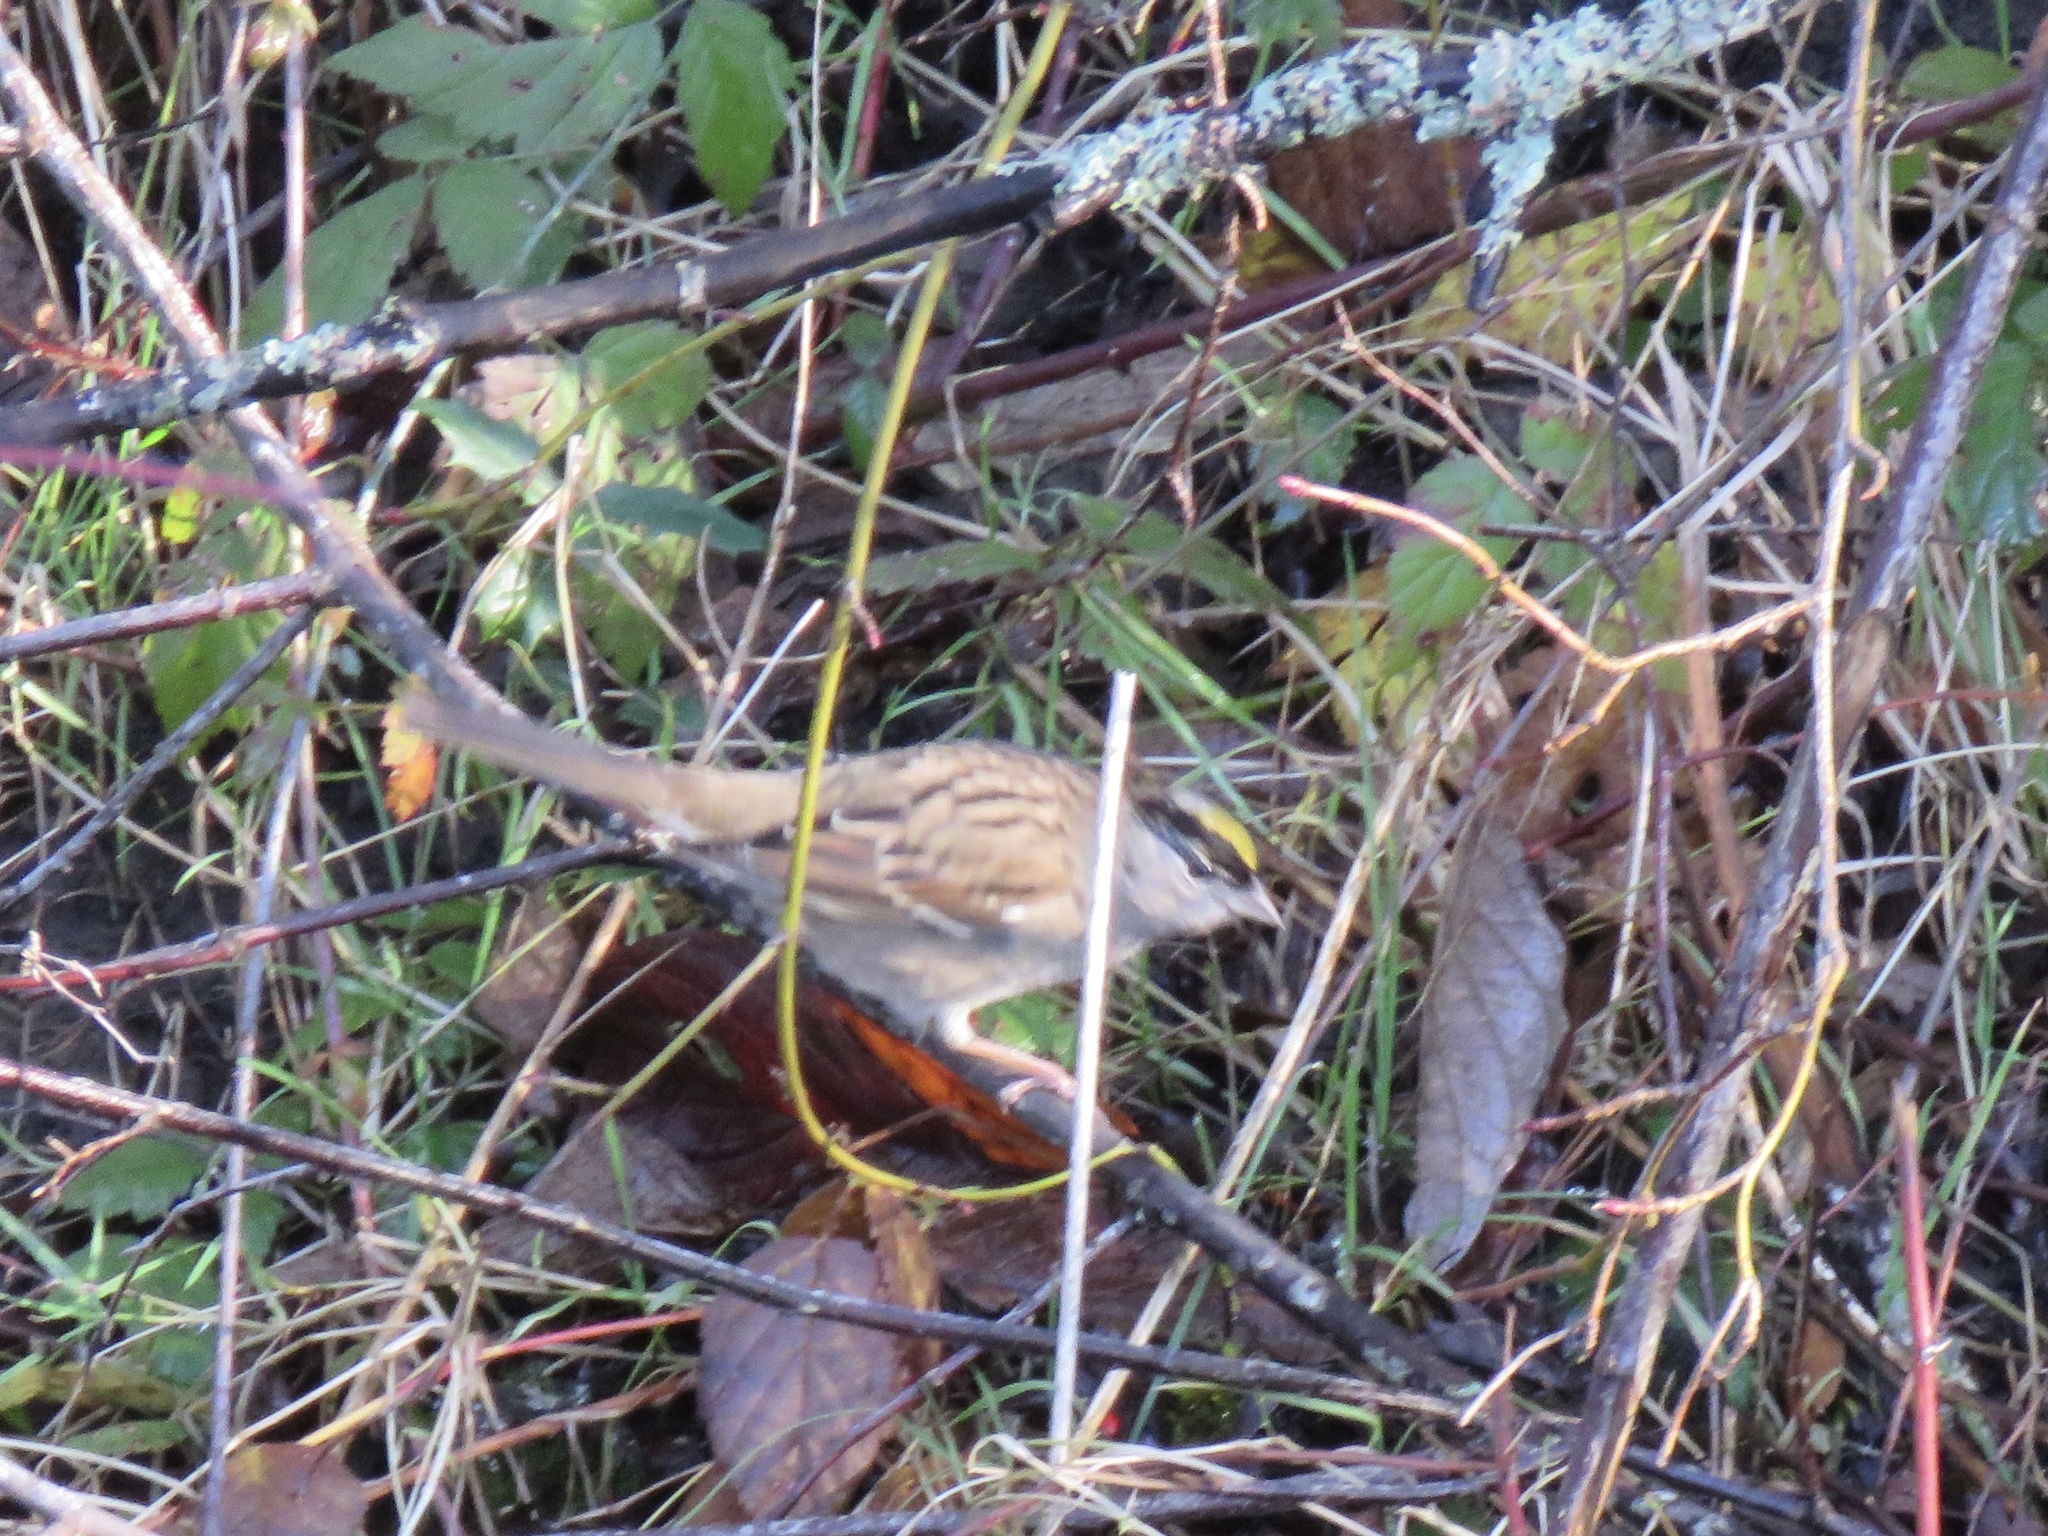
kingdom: Animalia
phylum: Chordata
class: Aves
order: Passeriformes
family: Passerellidae
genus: Zonotrichia
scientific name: Zonotrichia atricapilla
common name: Golden-crowned sparrow
